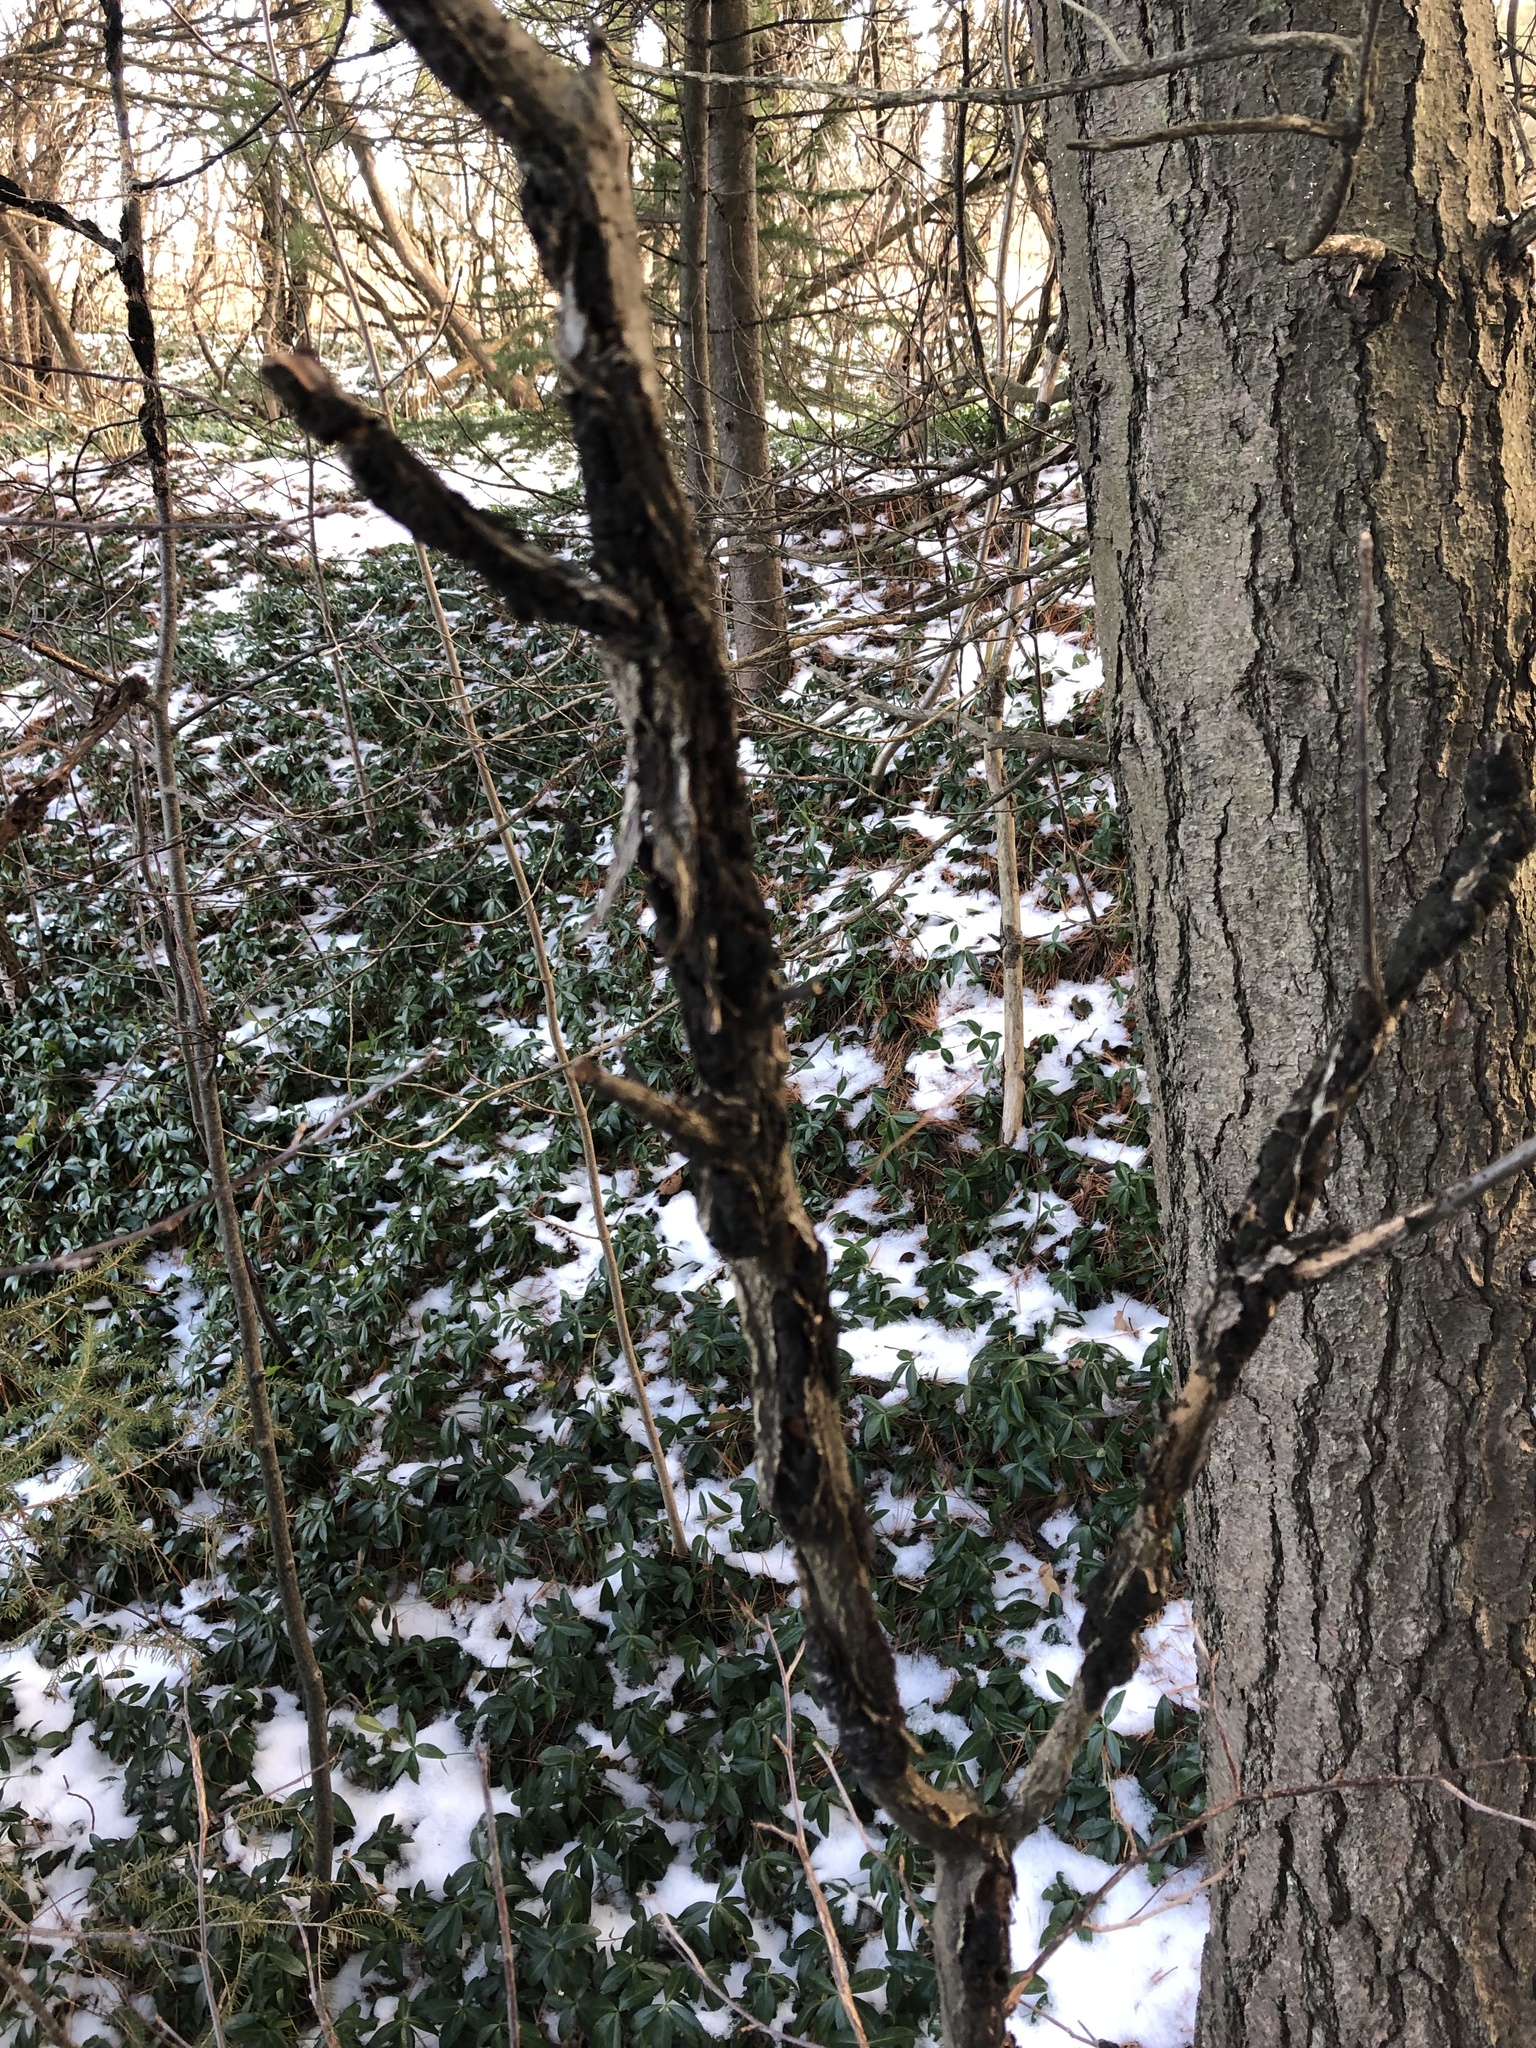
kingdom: Fungi
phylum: Ascomycota
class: Dothideomycetes
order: Venturiales
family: Venturiaceae
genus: Apiosporina
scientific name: Apiosporina morbosa
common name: Black knot
